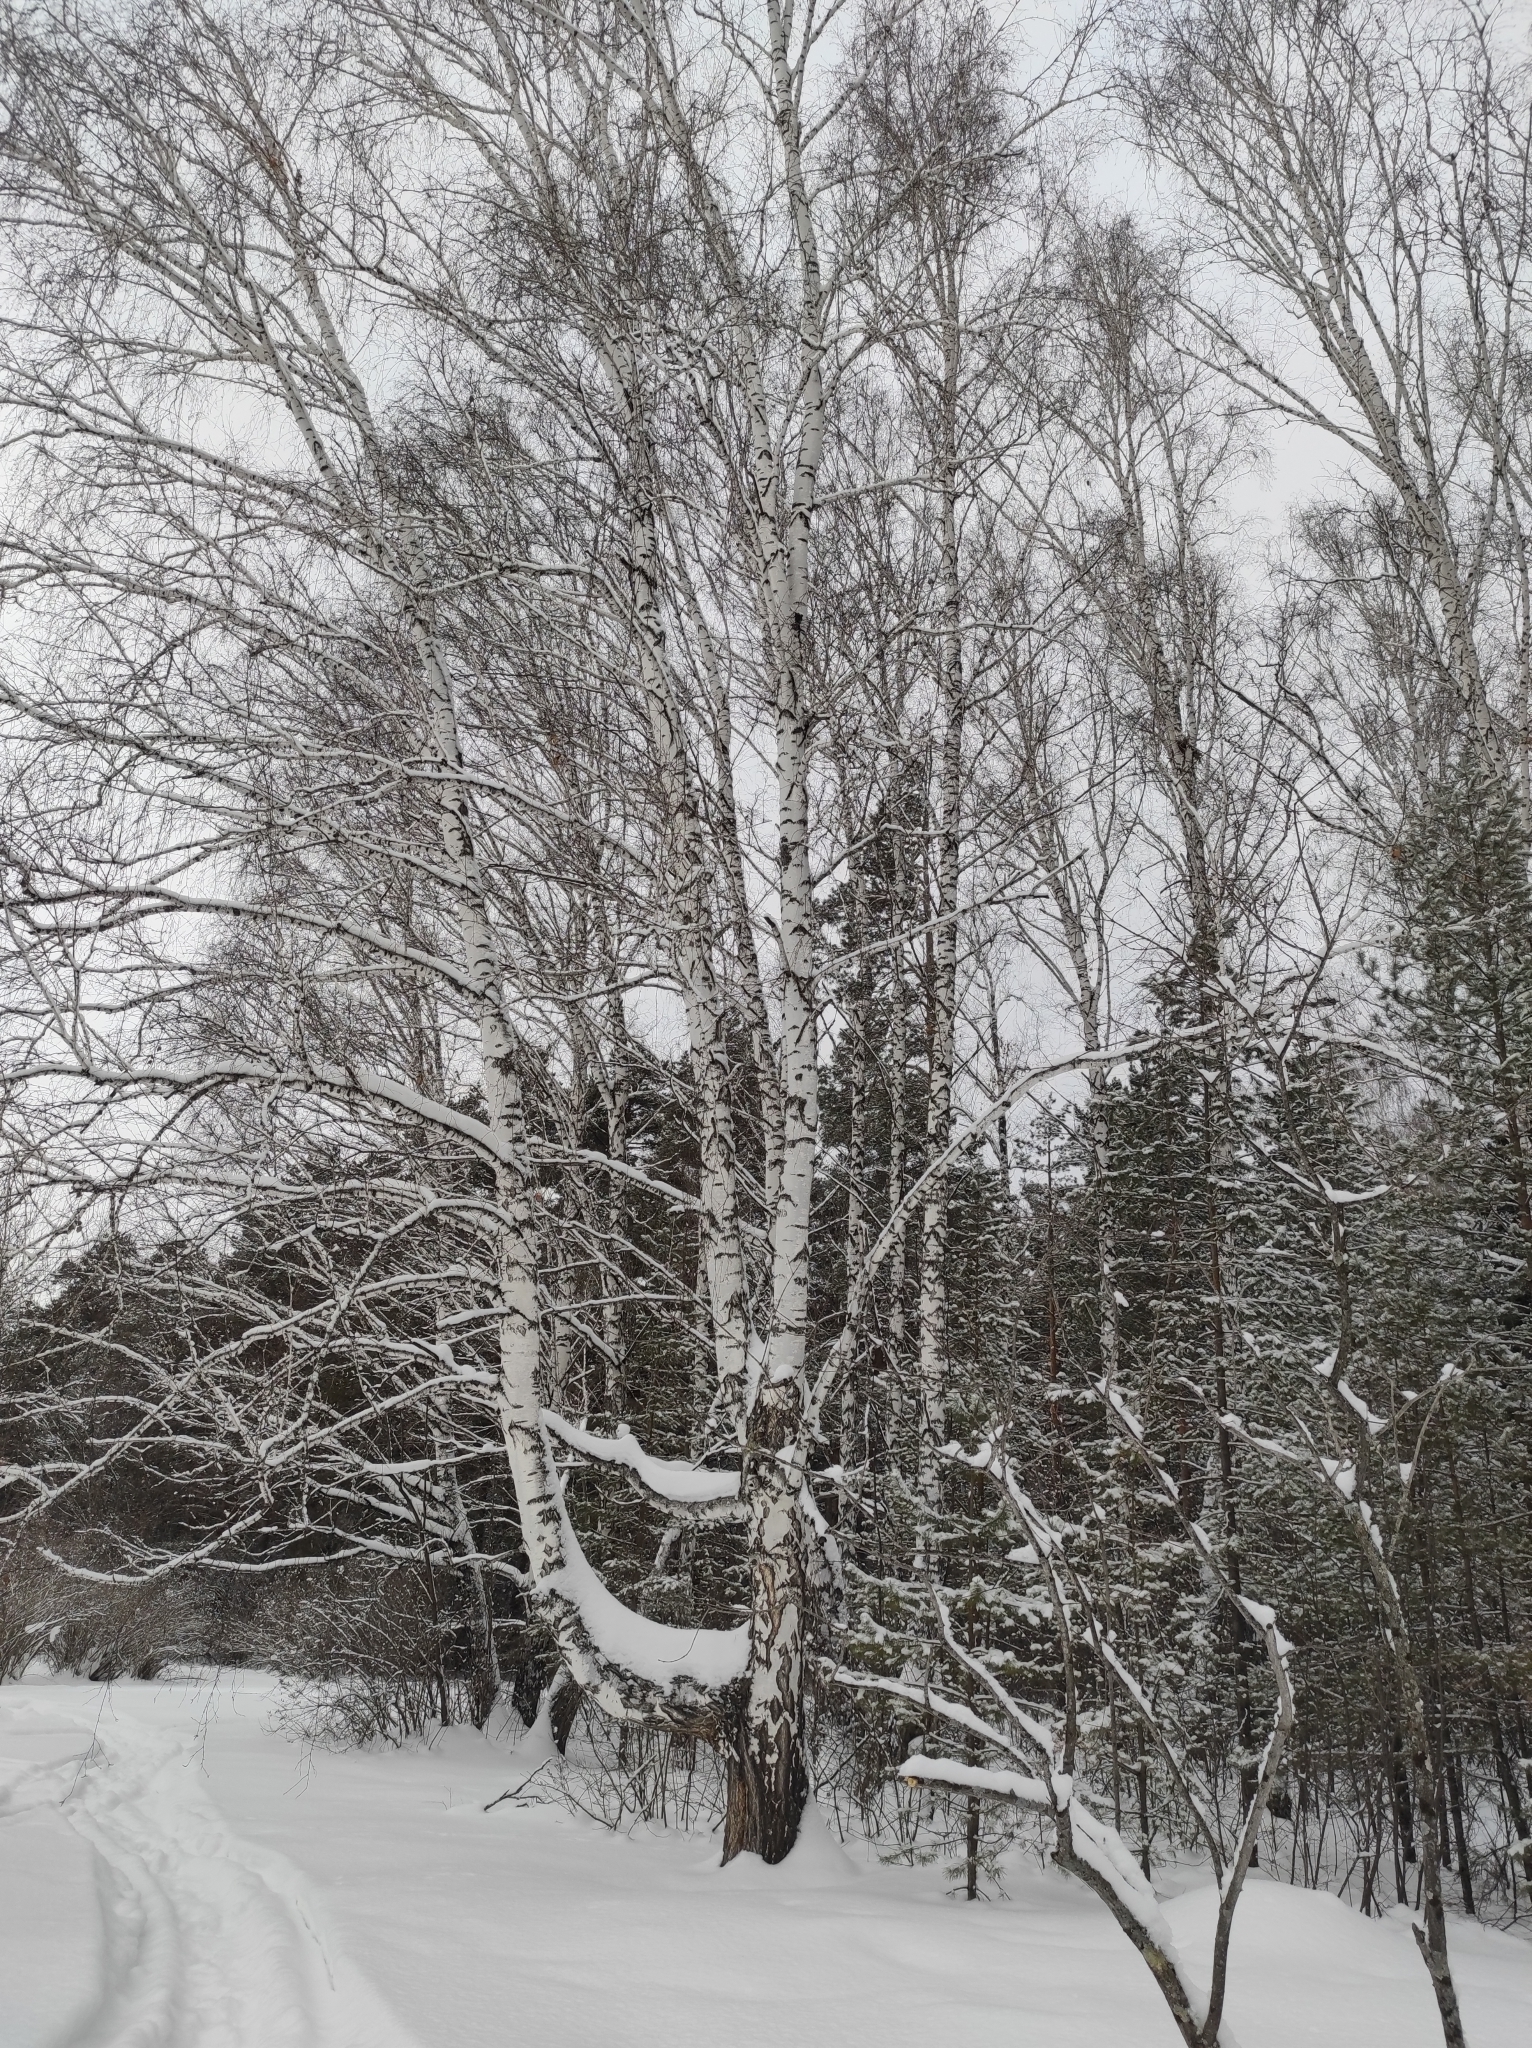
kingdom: Plantae
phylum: Tracheophyta
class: Magnoliopsida
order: Fagales
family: Betulaceae
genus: Betula
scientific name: Betula pendula
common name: Silver birch
